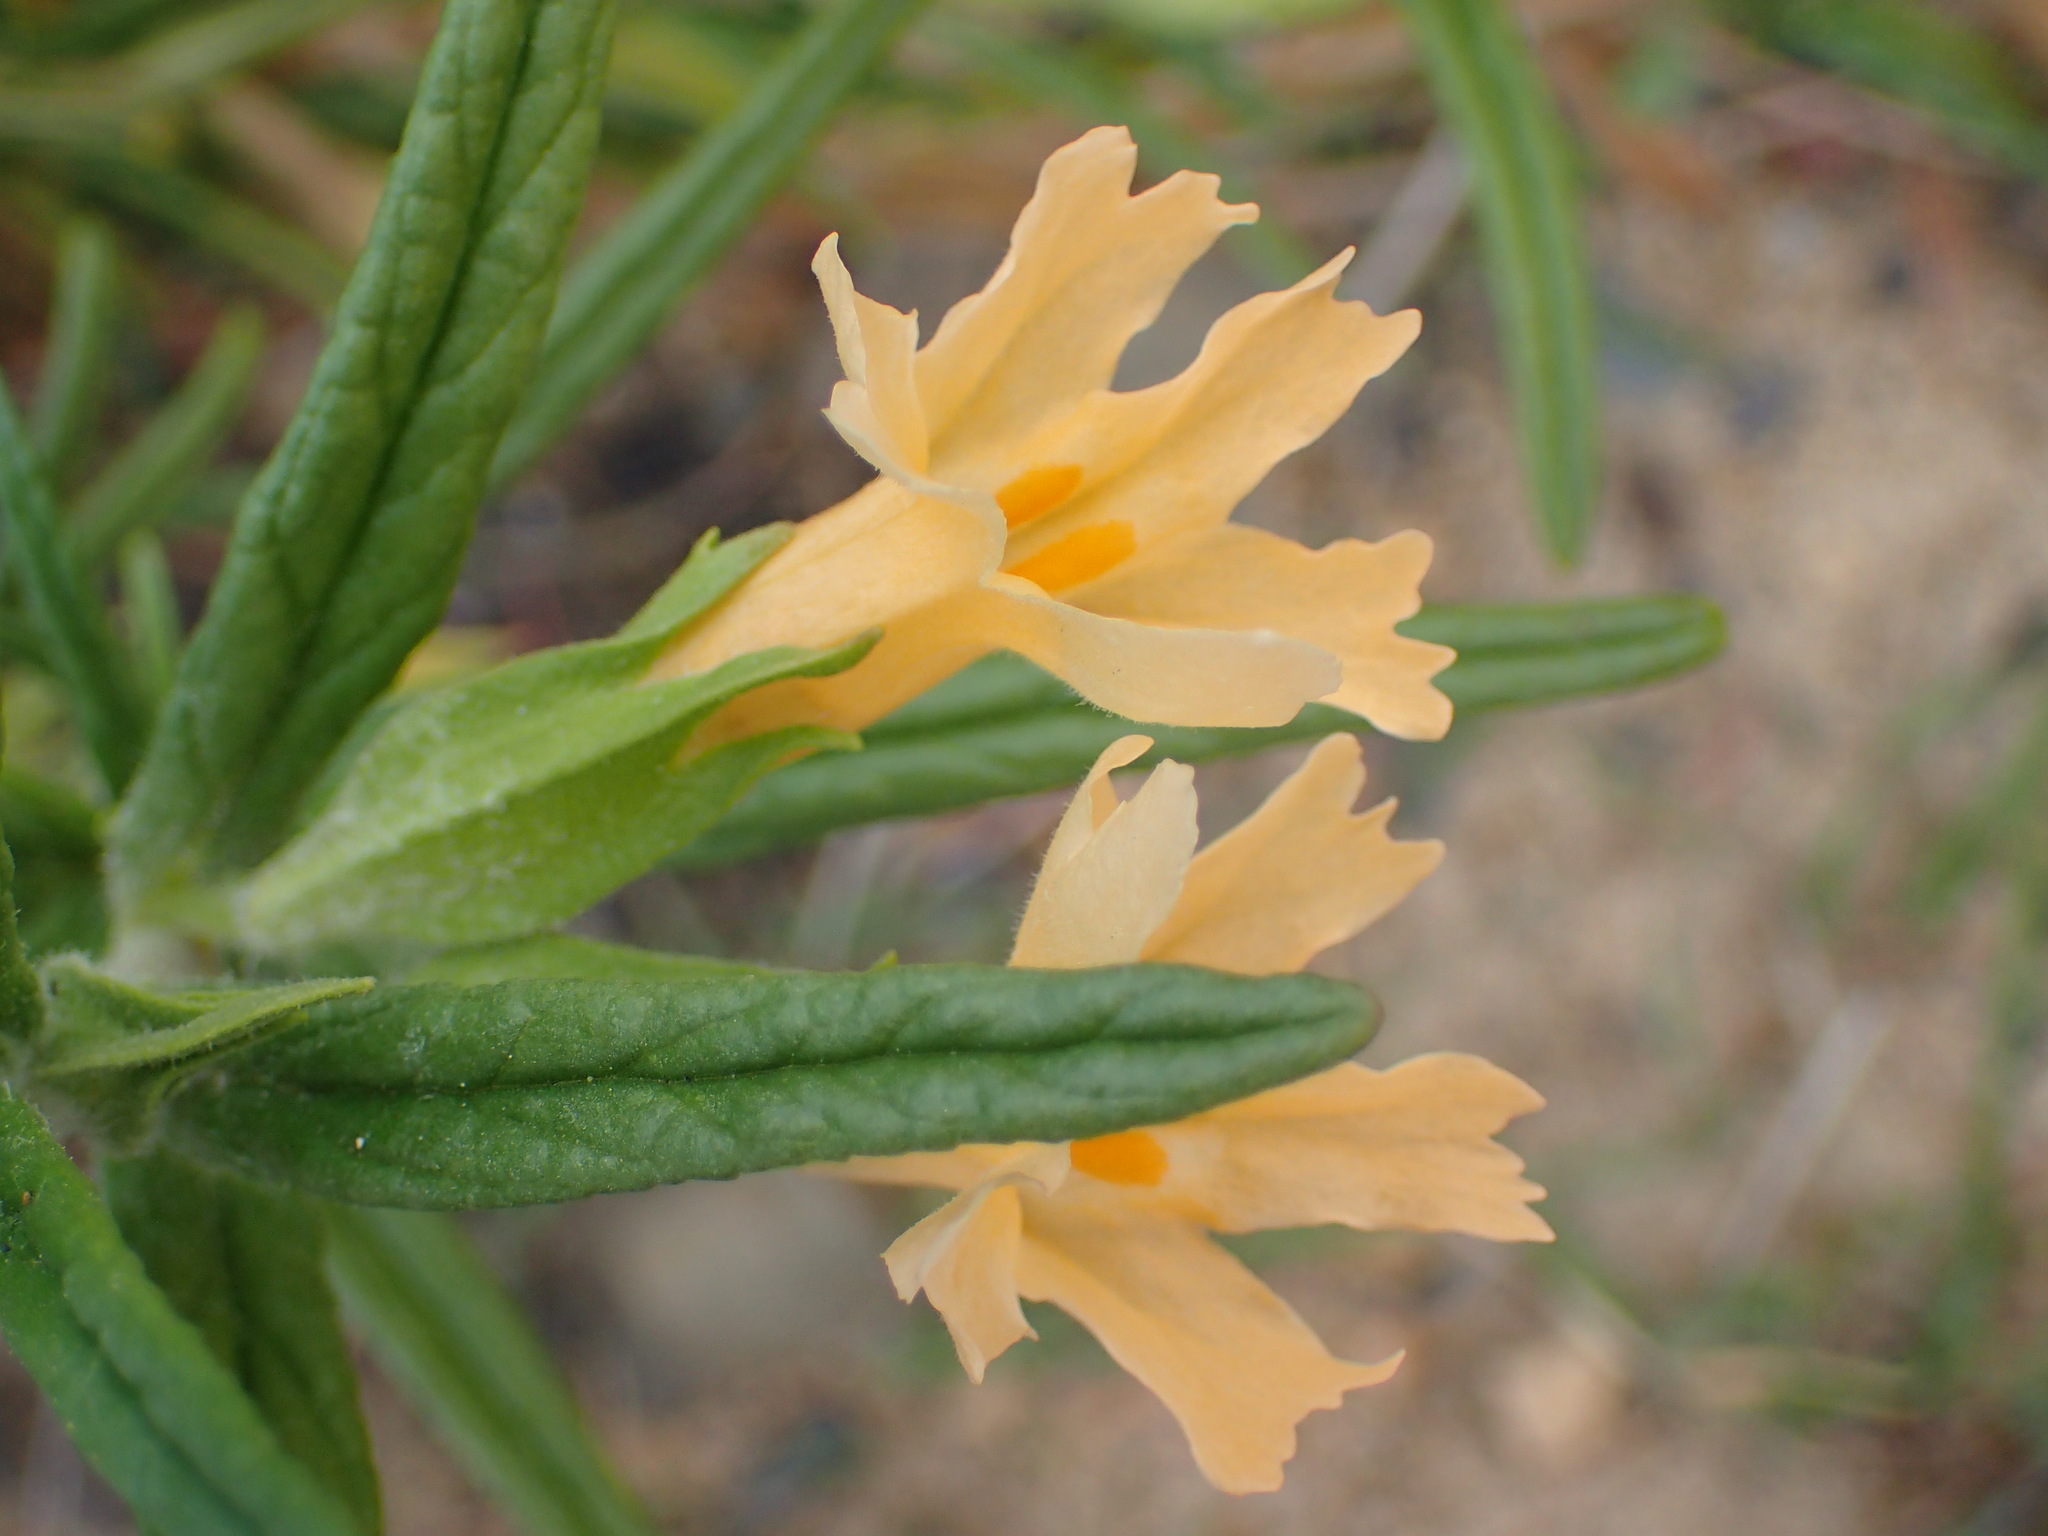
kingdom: Plantae
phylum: Tracheophyta
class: Magnoliopsida
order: Lamiales
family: Phrymaceae
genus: Diplacus
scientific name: Diplacus longiflorus
